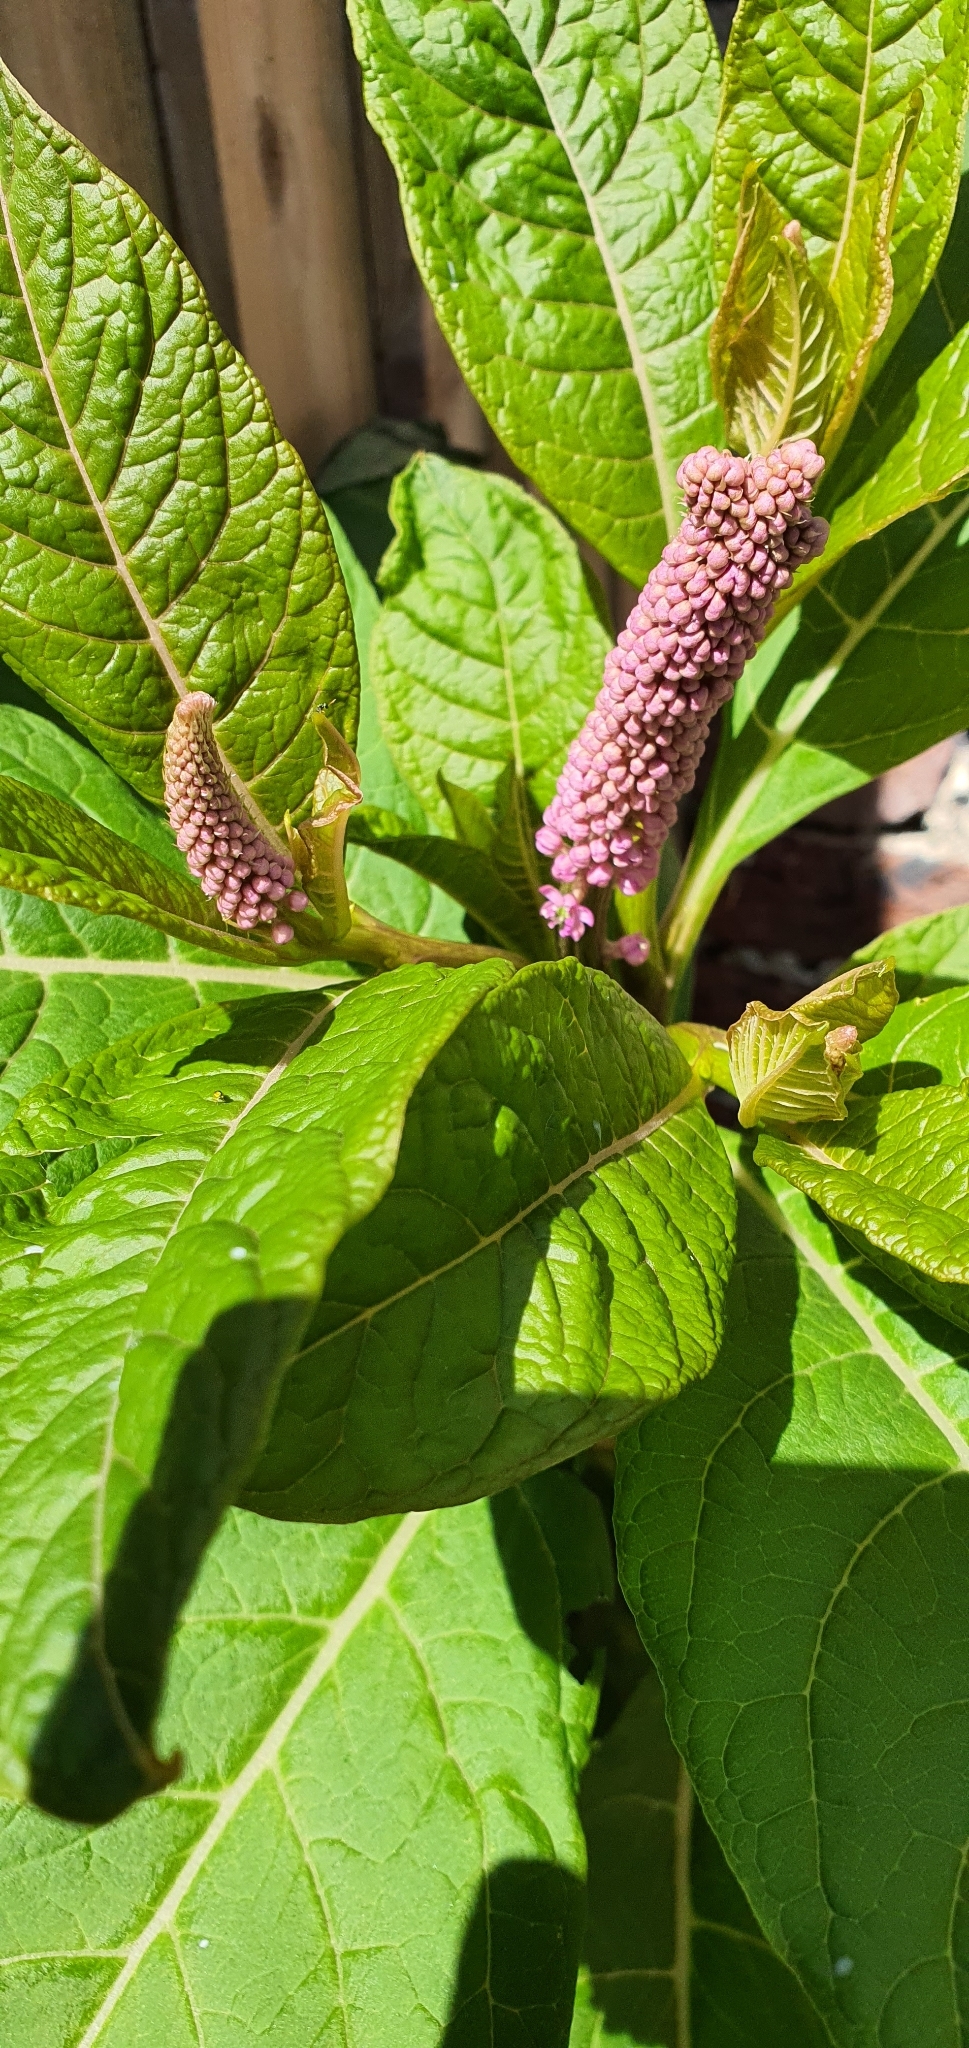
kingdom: Plantae
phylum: Tracheophyta
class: Magnoliopsida
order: Caryophyllales
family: Phytolaccaceae
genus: Phytolacca
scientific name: Phytolacca polyandra
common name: Chinese pokeweed
